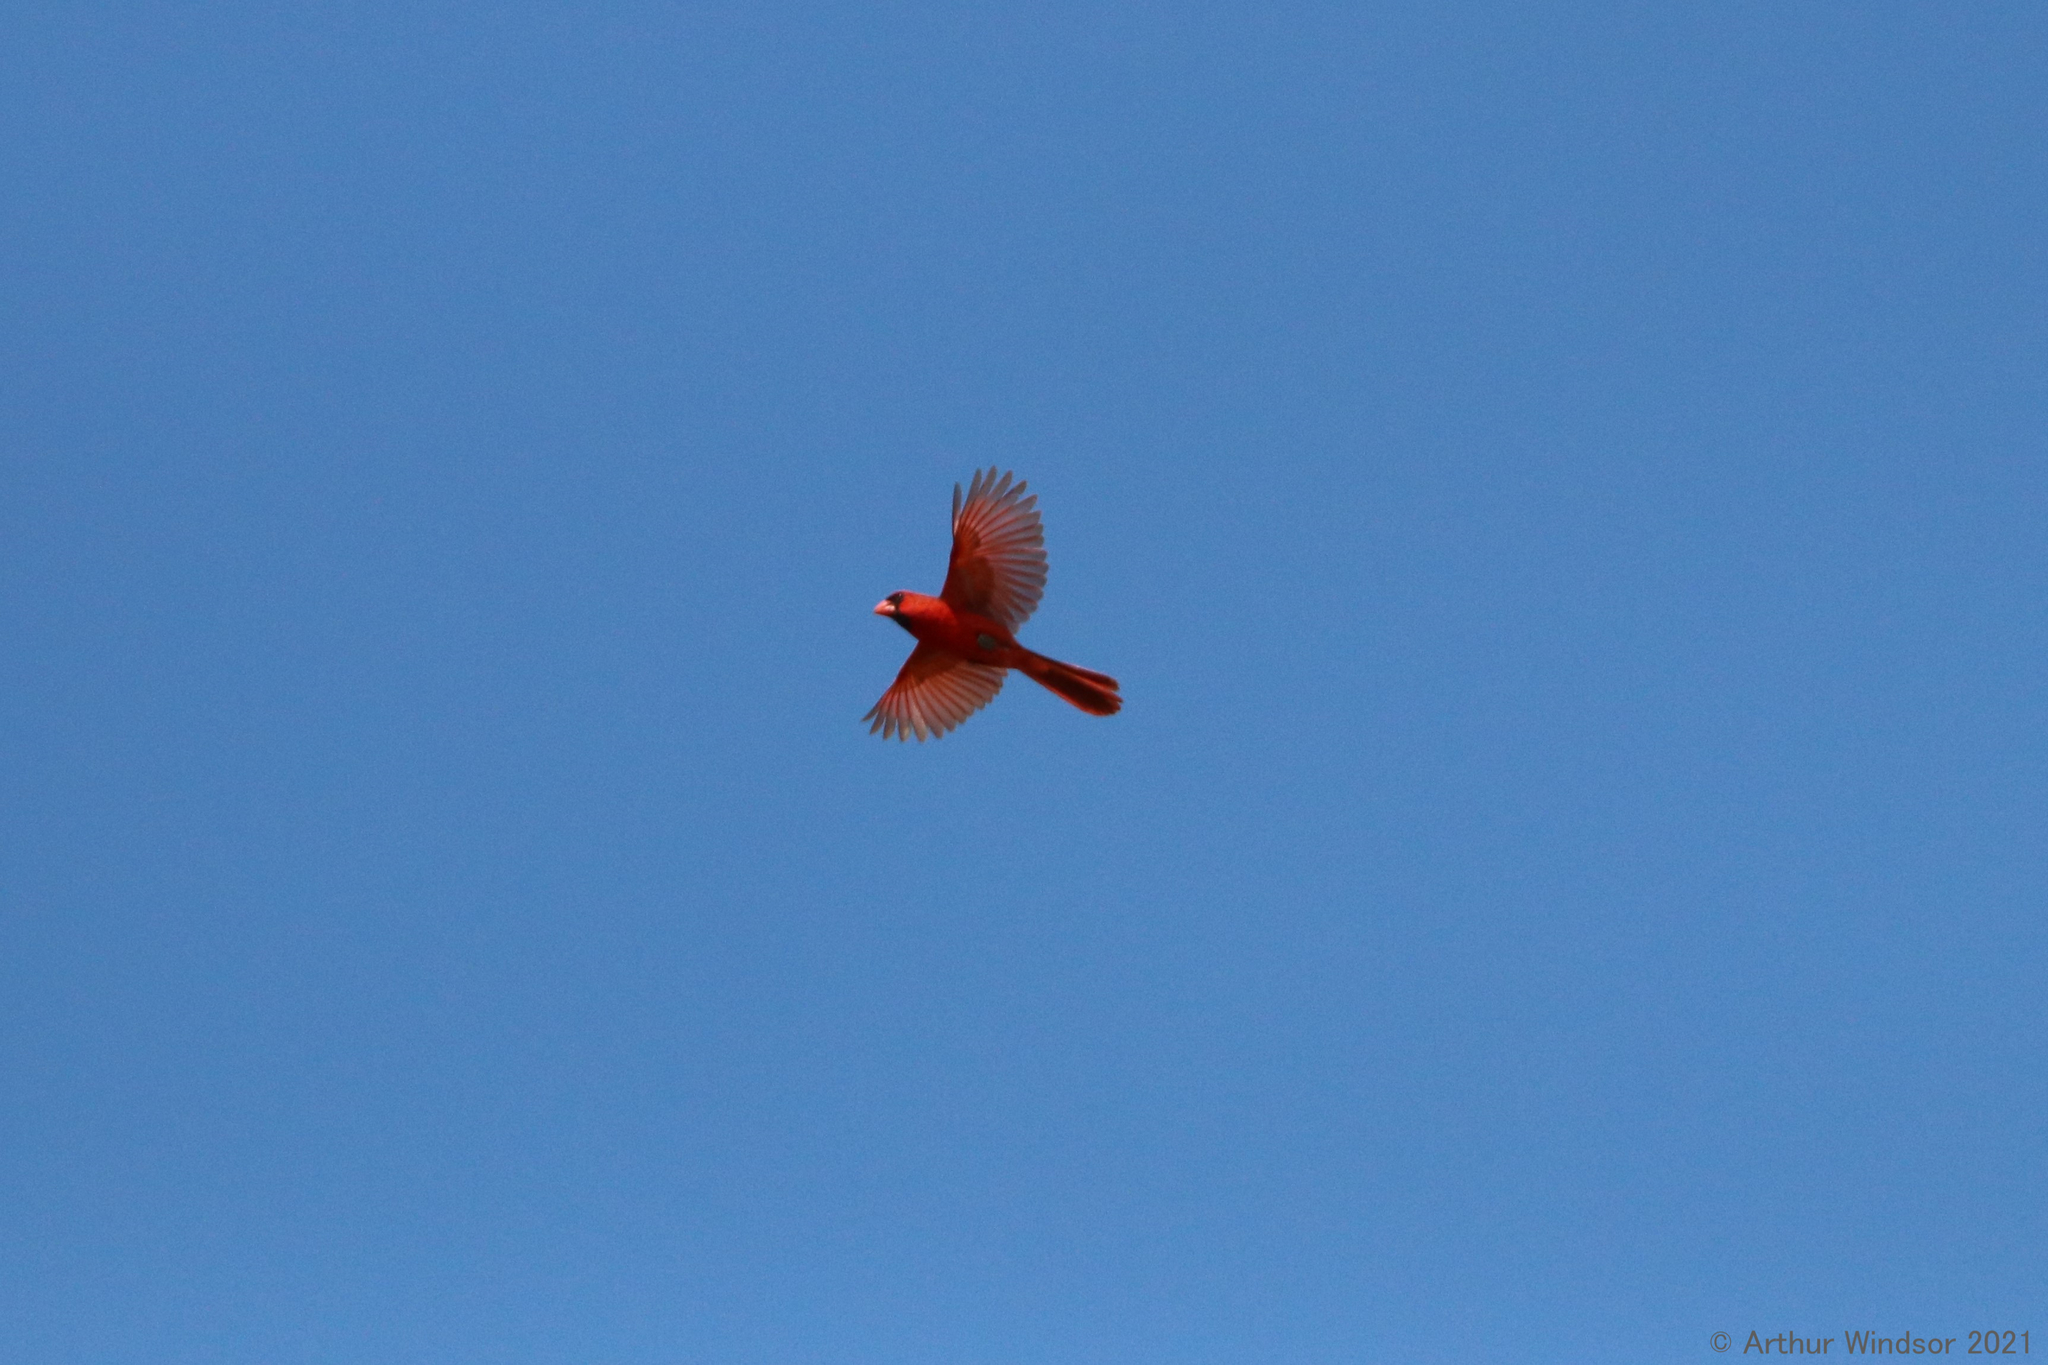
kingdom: Animalia
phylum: Chordata
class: Aves
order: Passeriformes
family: Cardinalidae
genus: Cardinalis
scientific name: Cardinalis cardinalis
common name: Northern cardinal
